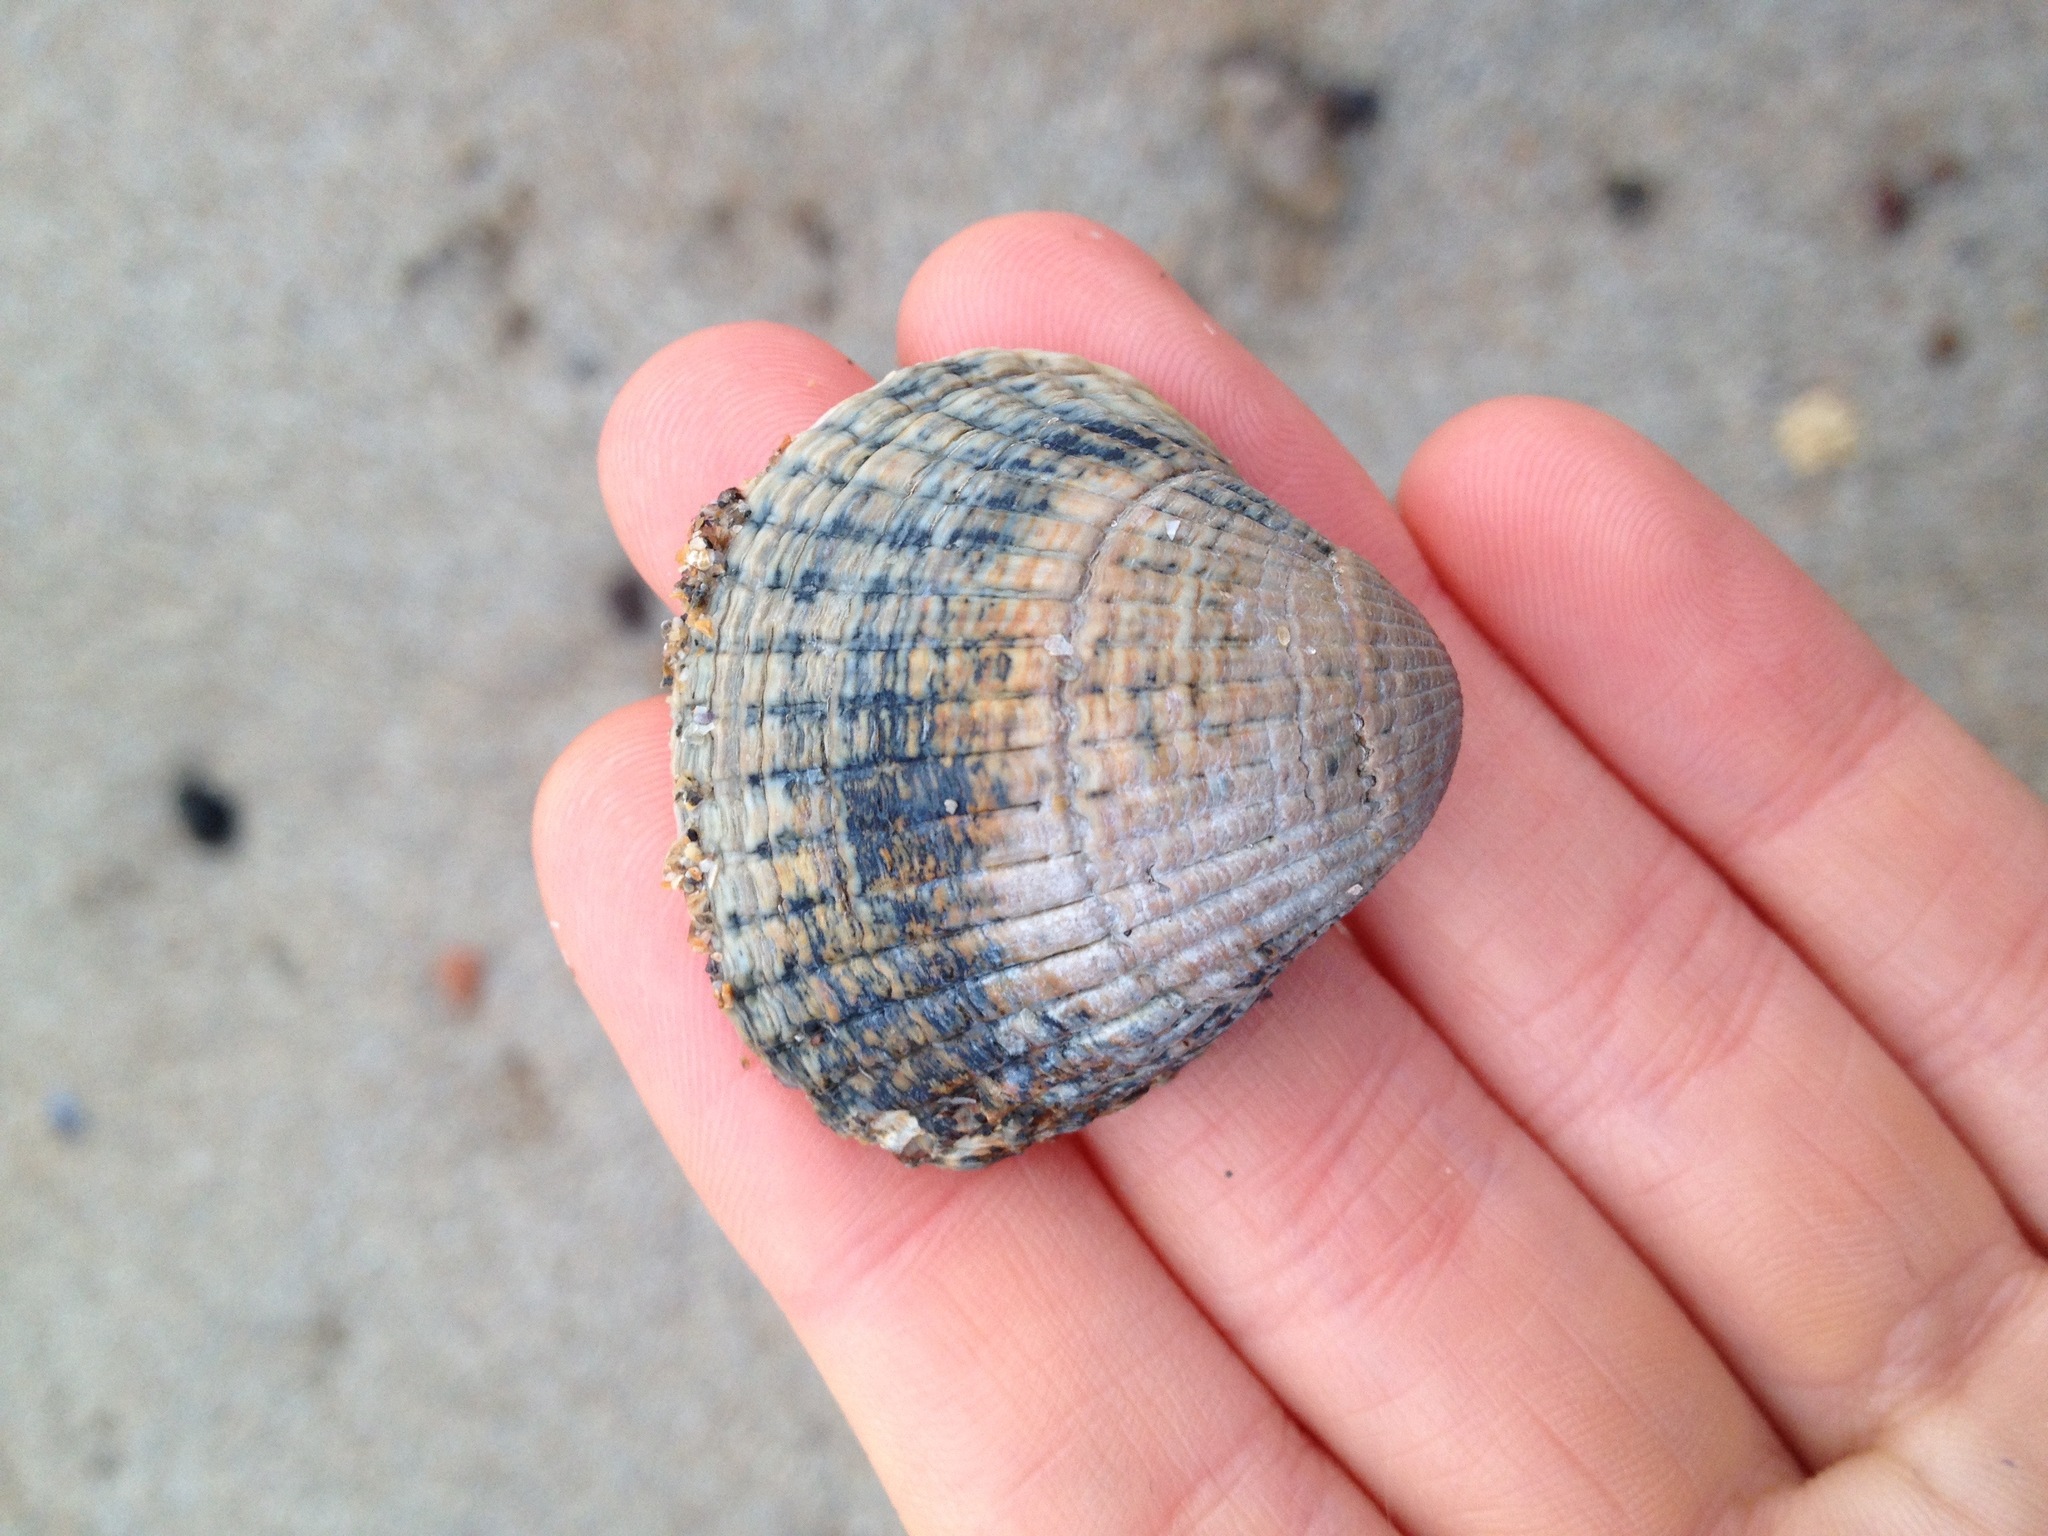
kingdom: Animalia
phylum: Mollusca
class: Bivalvia
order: Cardiida
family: Cardiidae
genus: Cerastoderma
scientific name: Cerastoderma edule
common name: Common cockle
